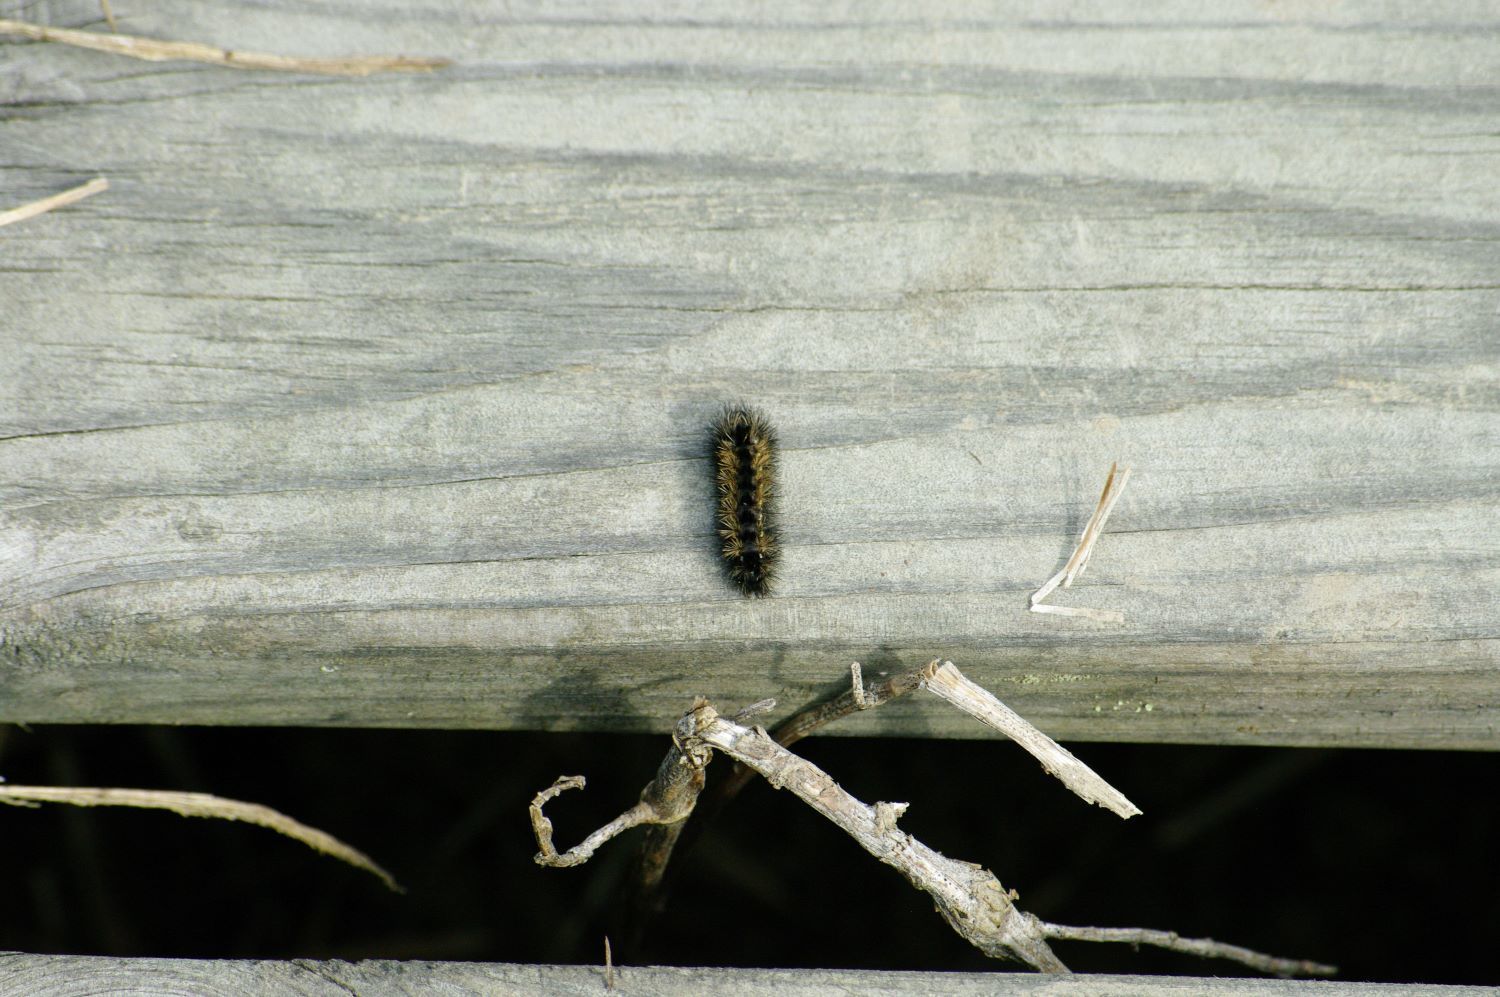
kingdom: Animalia
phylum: Arthropoda
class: Insecta
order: Lepidoptera
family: Erebidae
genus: Ctenucha
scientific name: Ctenucha virginica
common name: Virginia ctenucha moth
